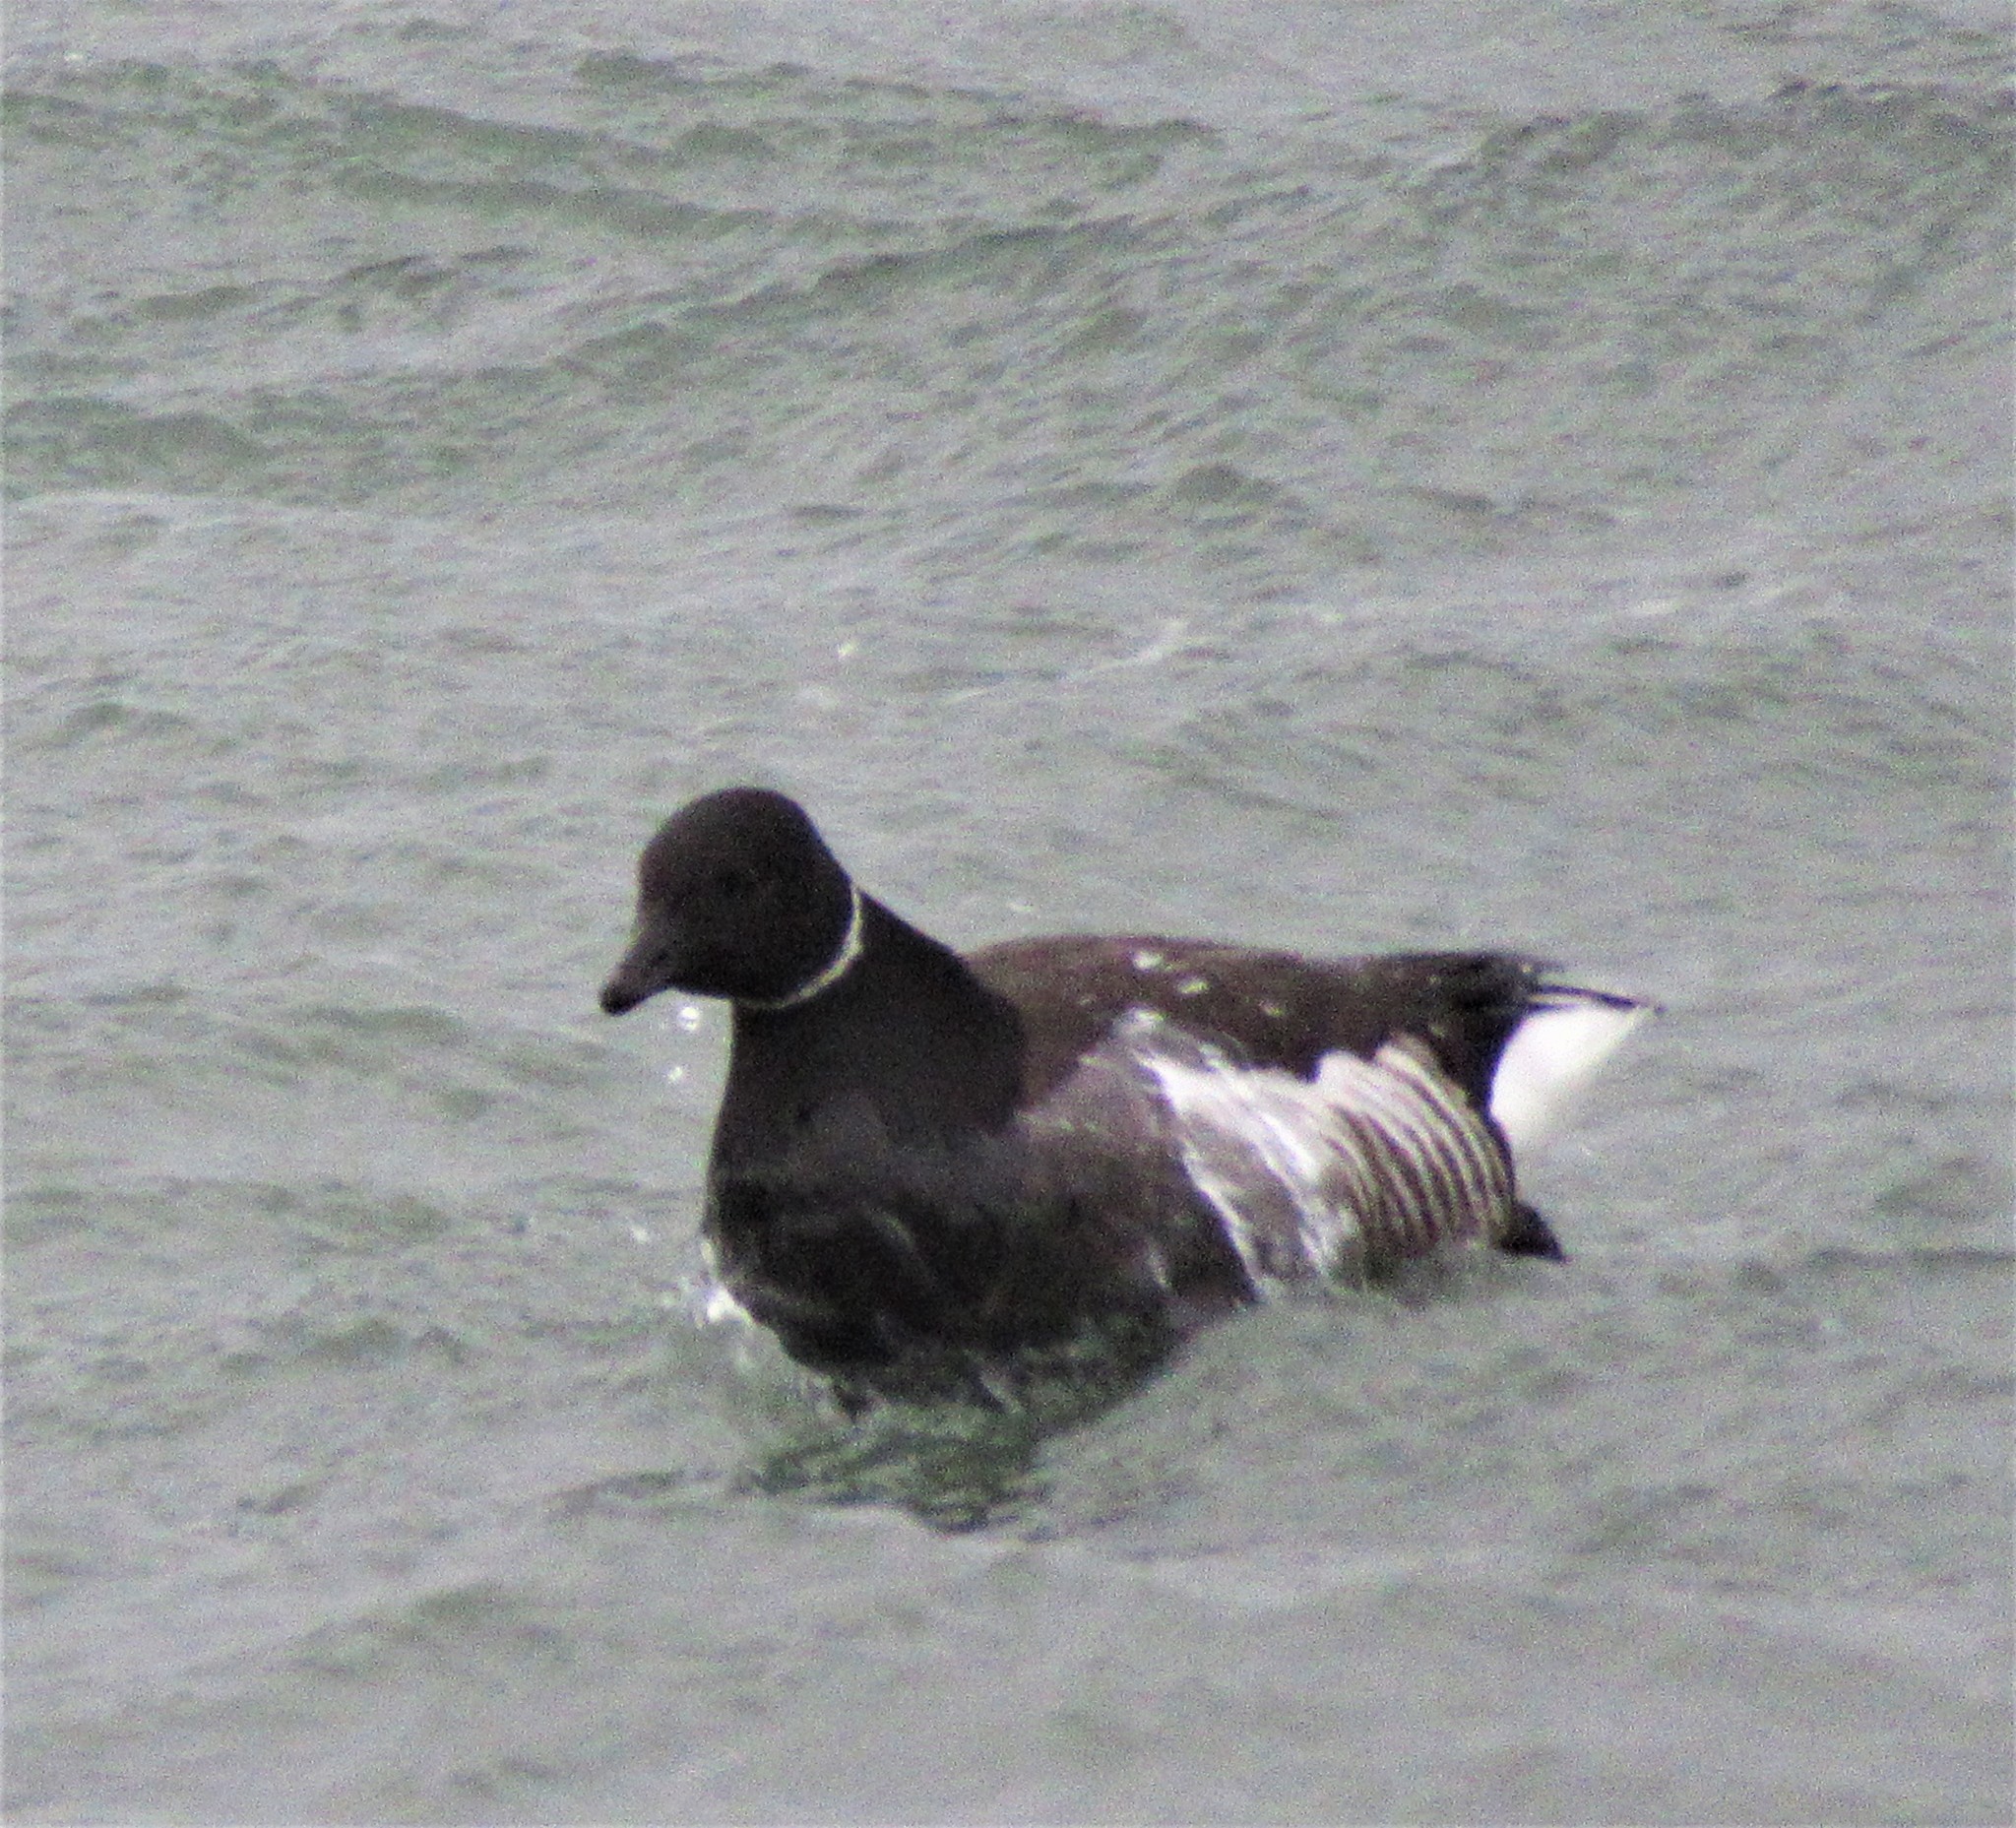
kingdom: Animalia
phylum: Chordata
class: Aves
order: Anseriformes
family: Anatidae
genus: Branta
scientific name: Branta bernicla
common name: Brant goose
